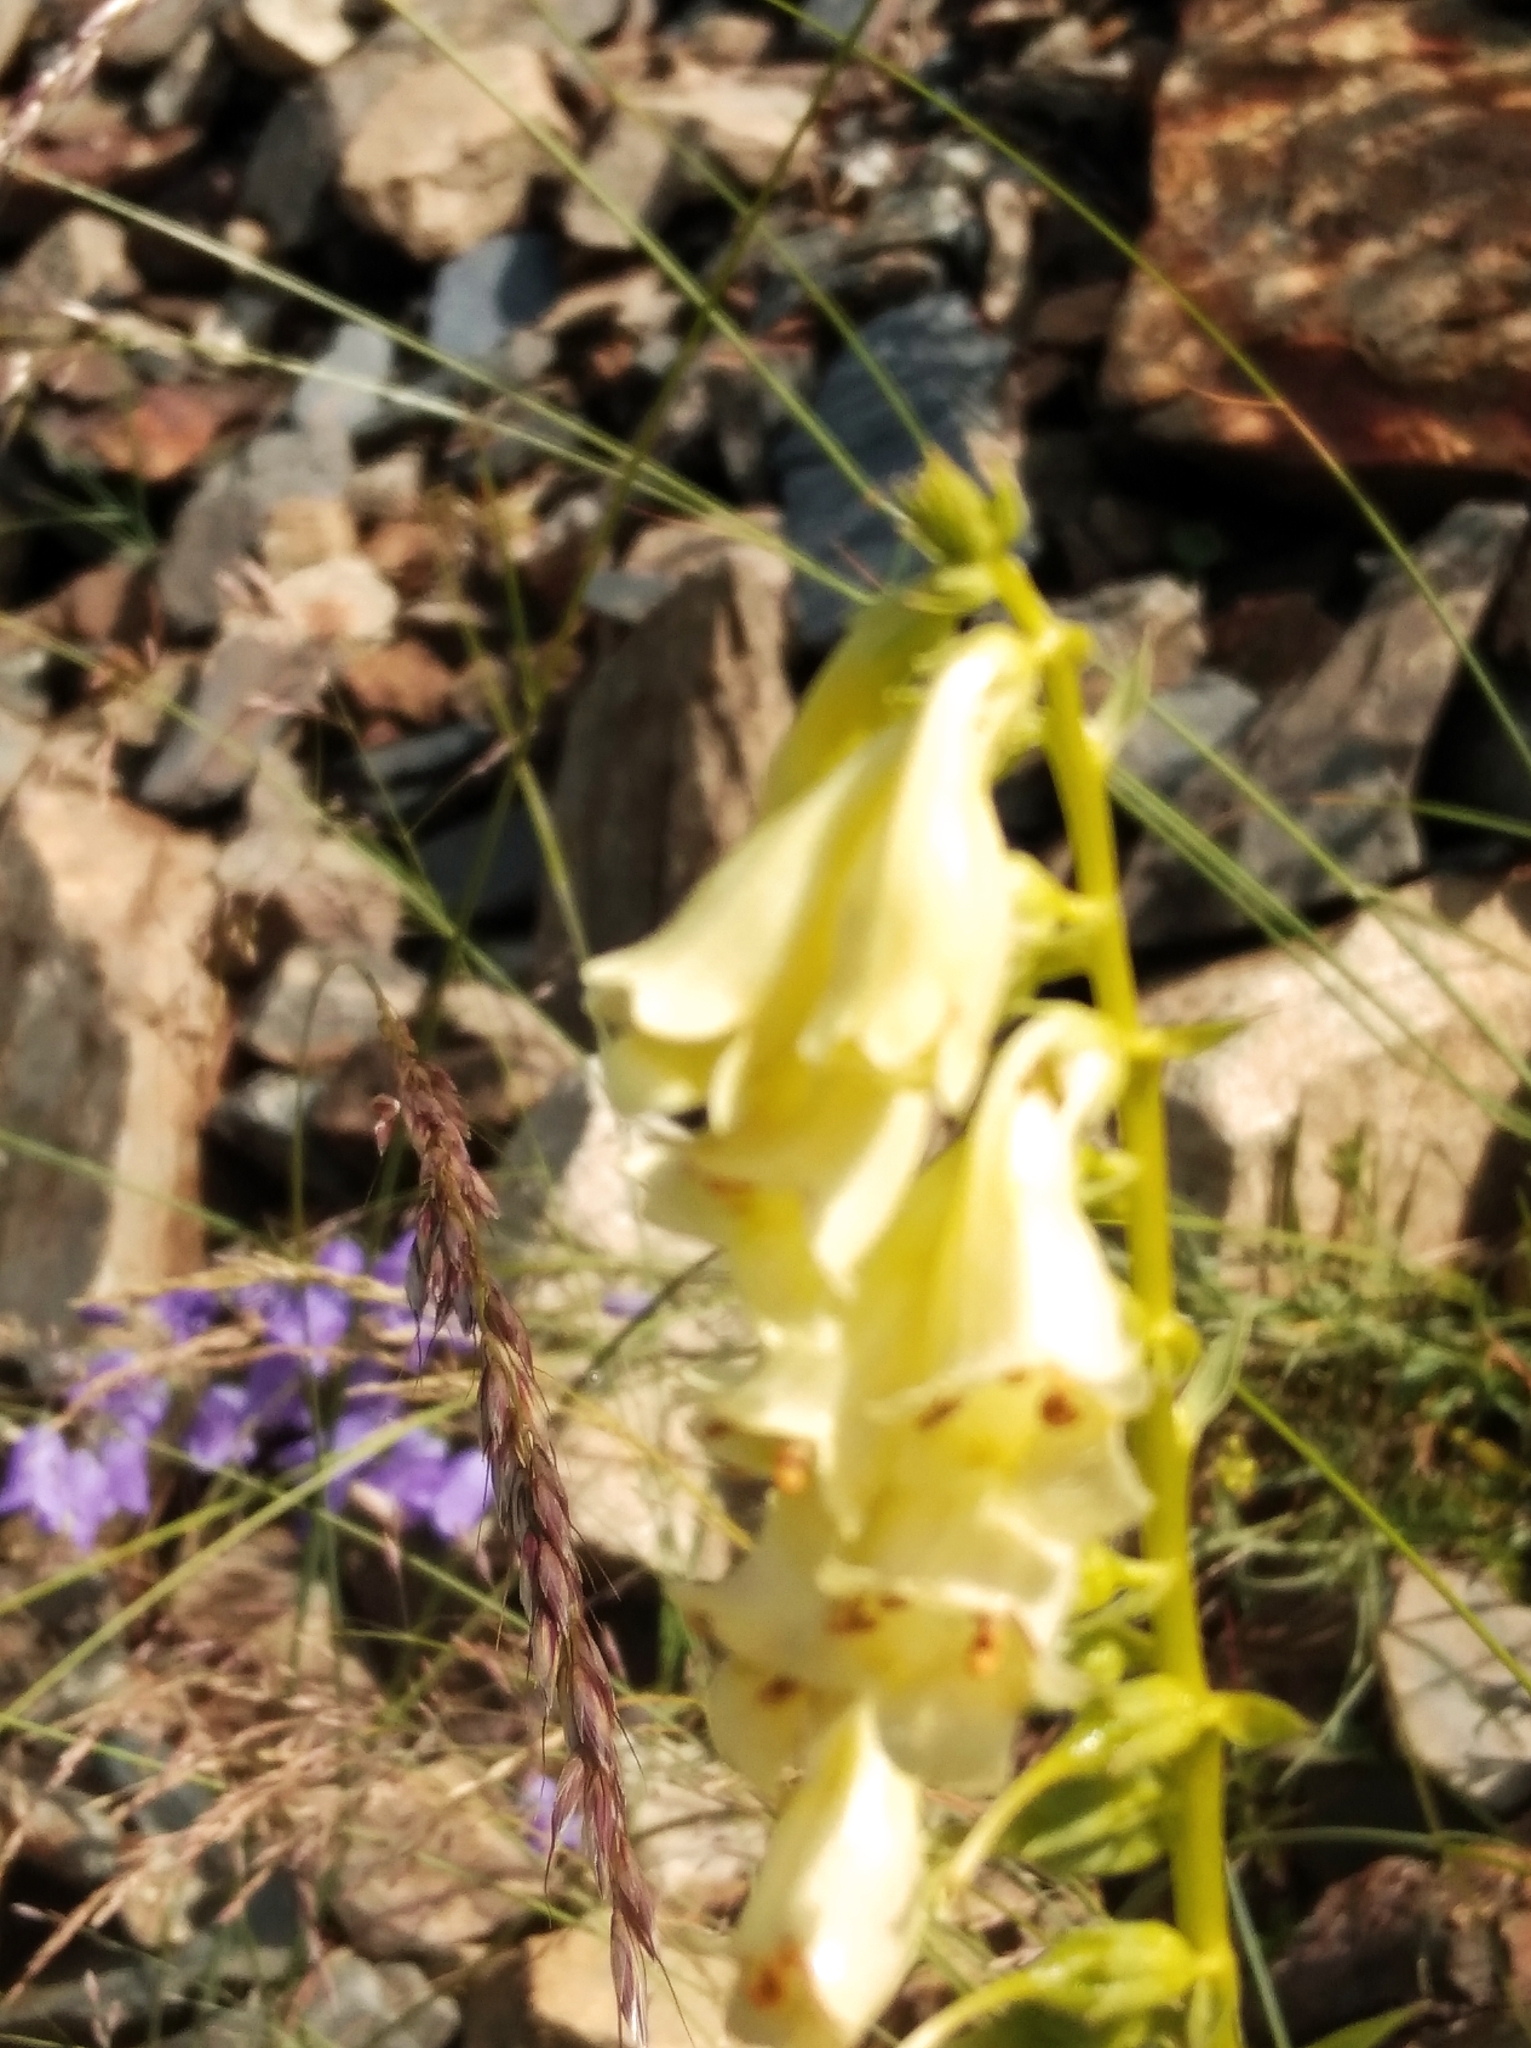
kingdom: Plantae
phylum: Tracheophyta
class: Magnoliopsida
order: Lamiales
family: Plantaginaceae
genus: Digitalis
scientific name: Digitalis lutea
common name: Straw foxglove
